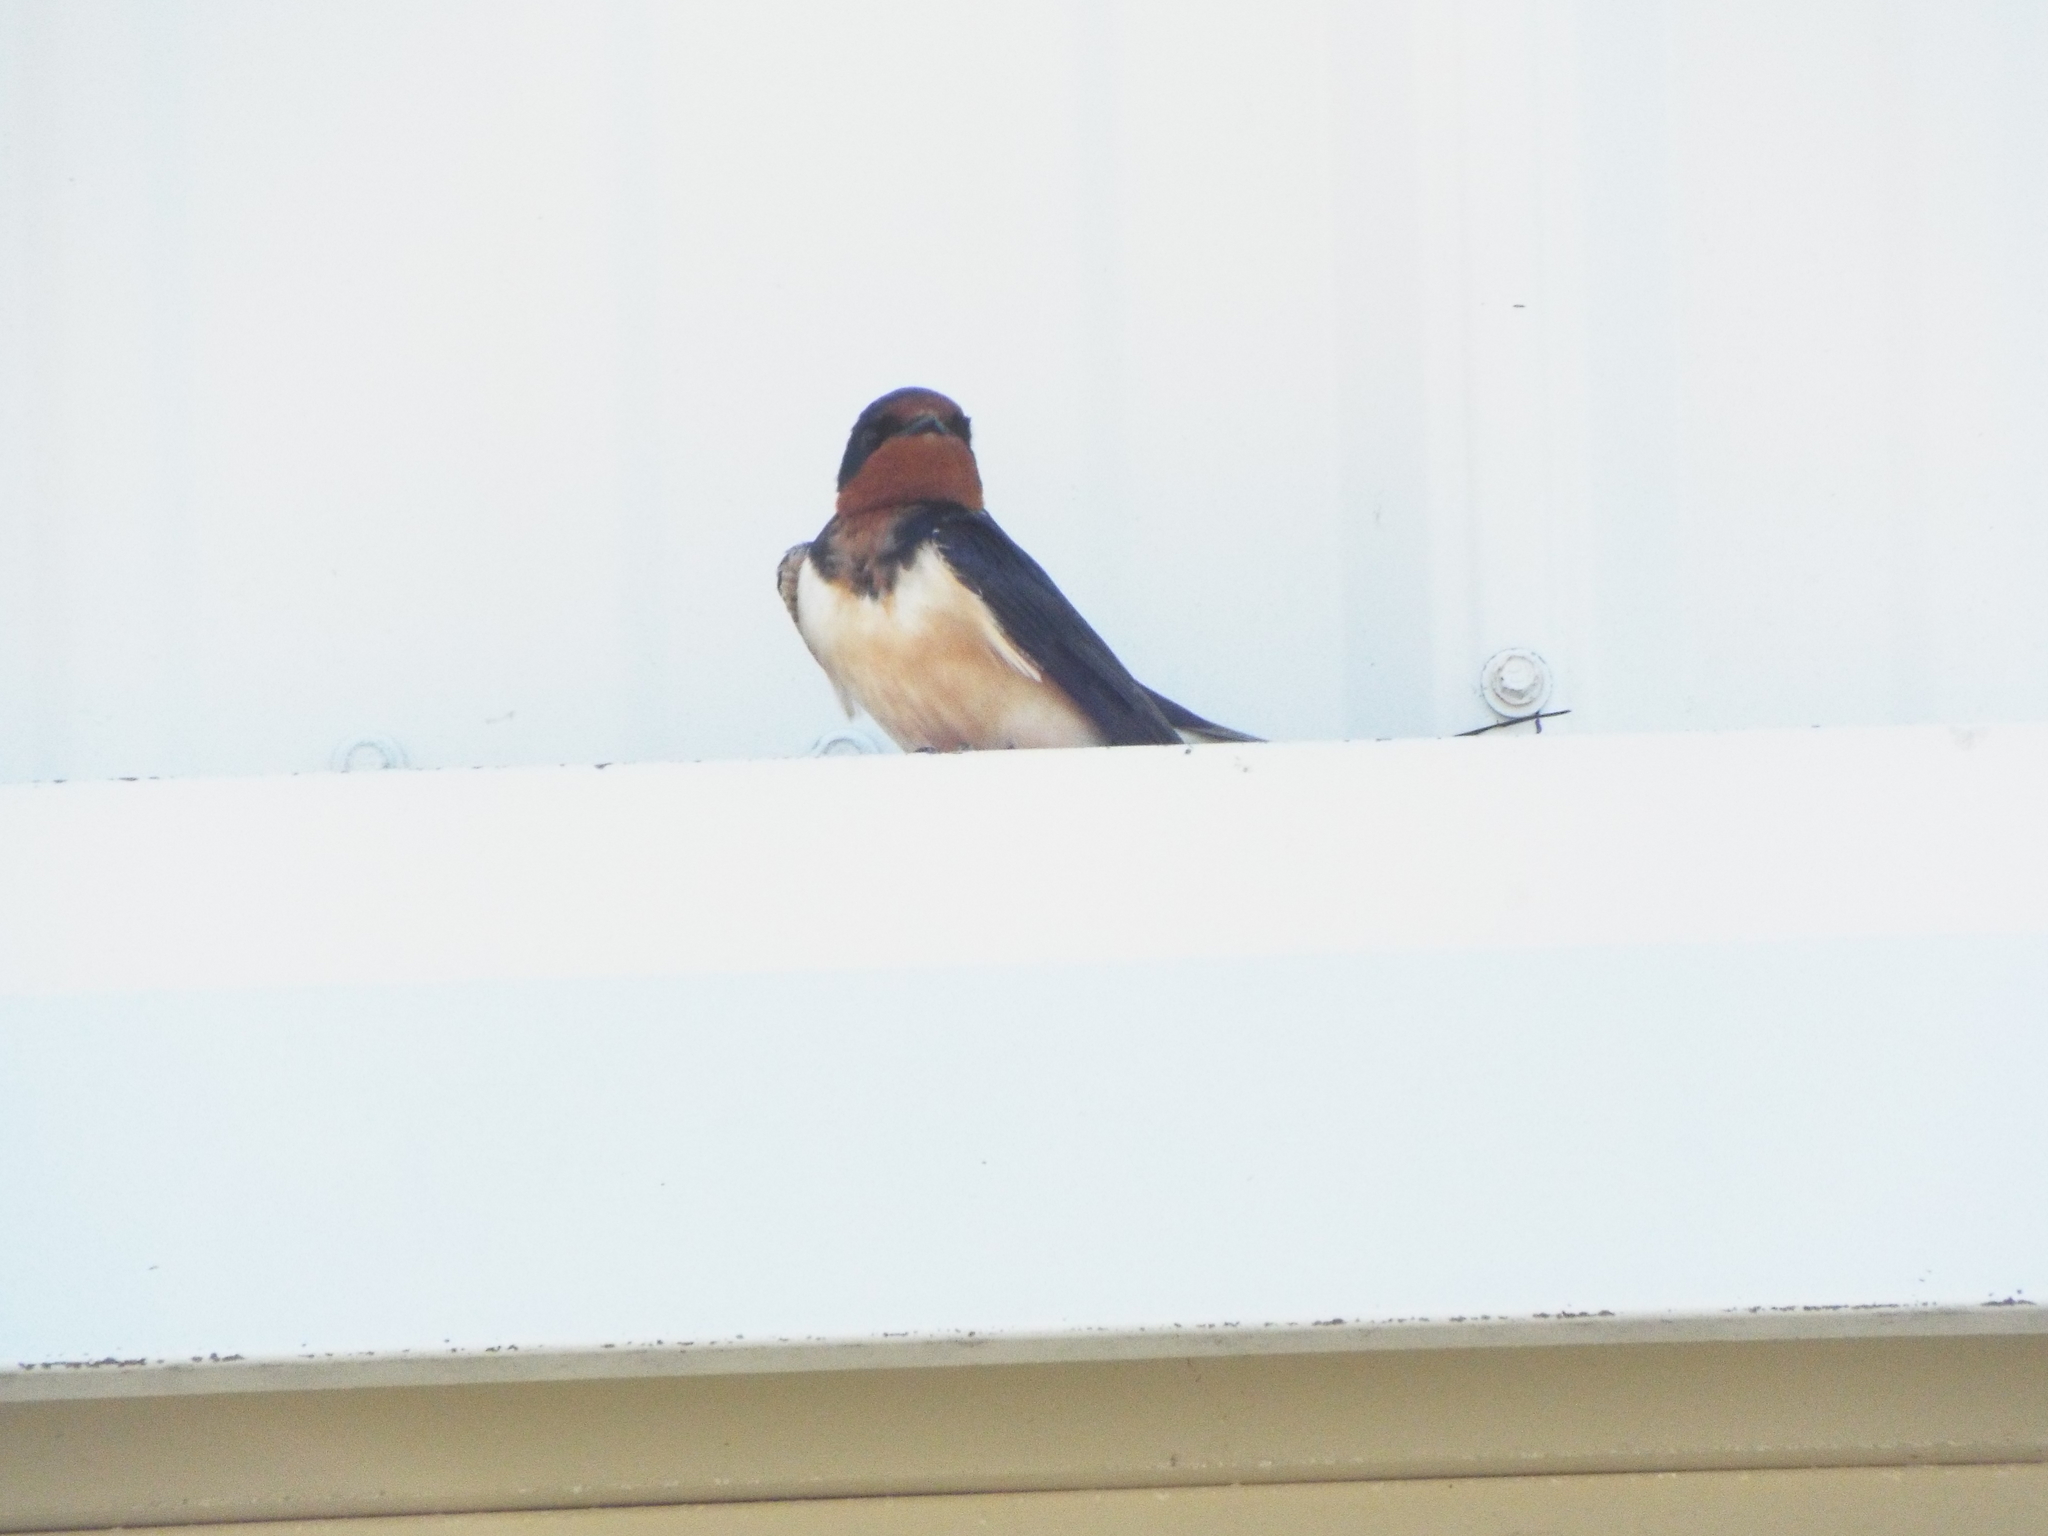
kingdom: Animalia
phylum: Chordata
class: Aves
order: Passeriformes
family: Hirundinidae
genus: Hirundo
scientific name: Hirundo rustica
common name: Barn swallow
